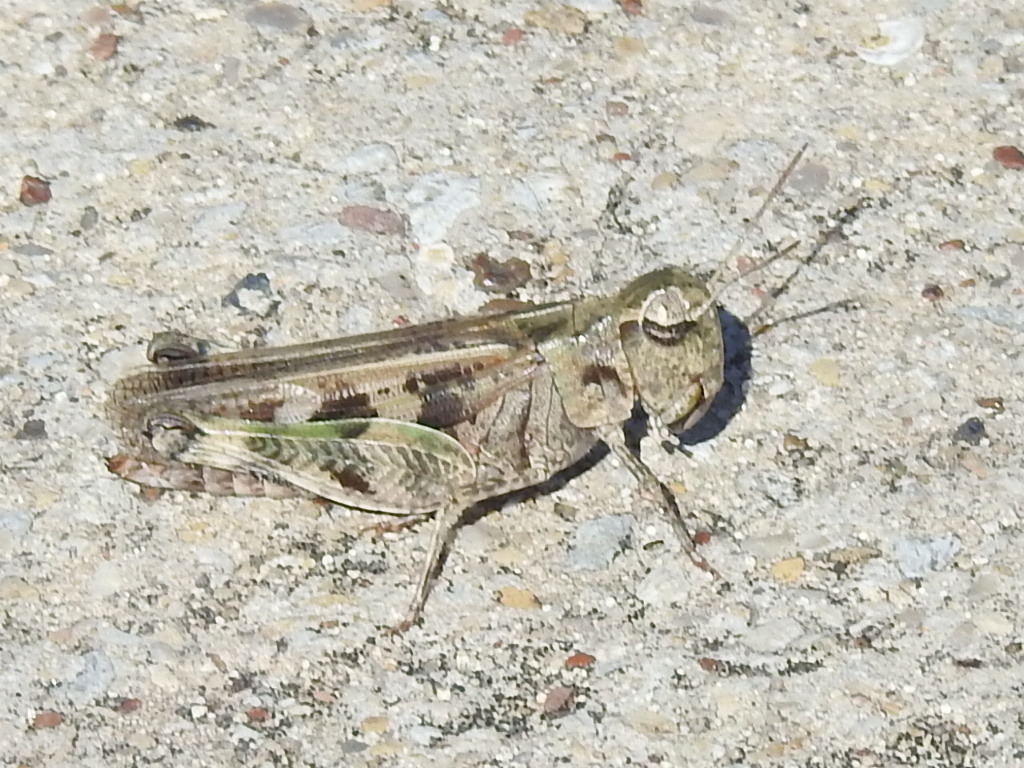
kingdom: Animalia
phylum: Arthropoda
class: Insecta
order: Orthoptera
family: Acrididae
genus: Encoptolophus
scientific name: Encoptolophus costalis
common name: Dusky grasshopper
